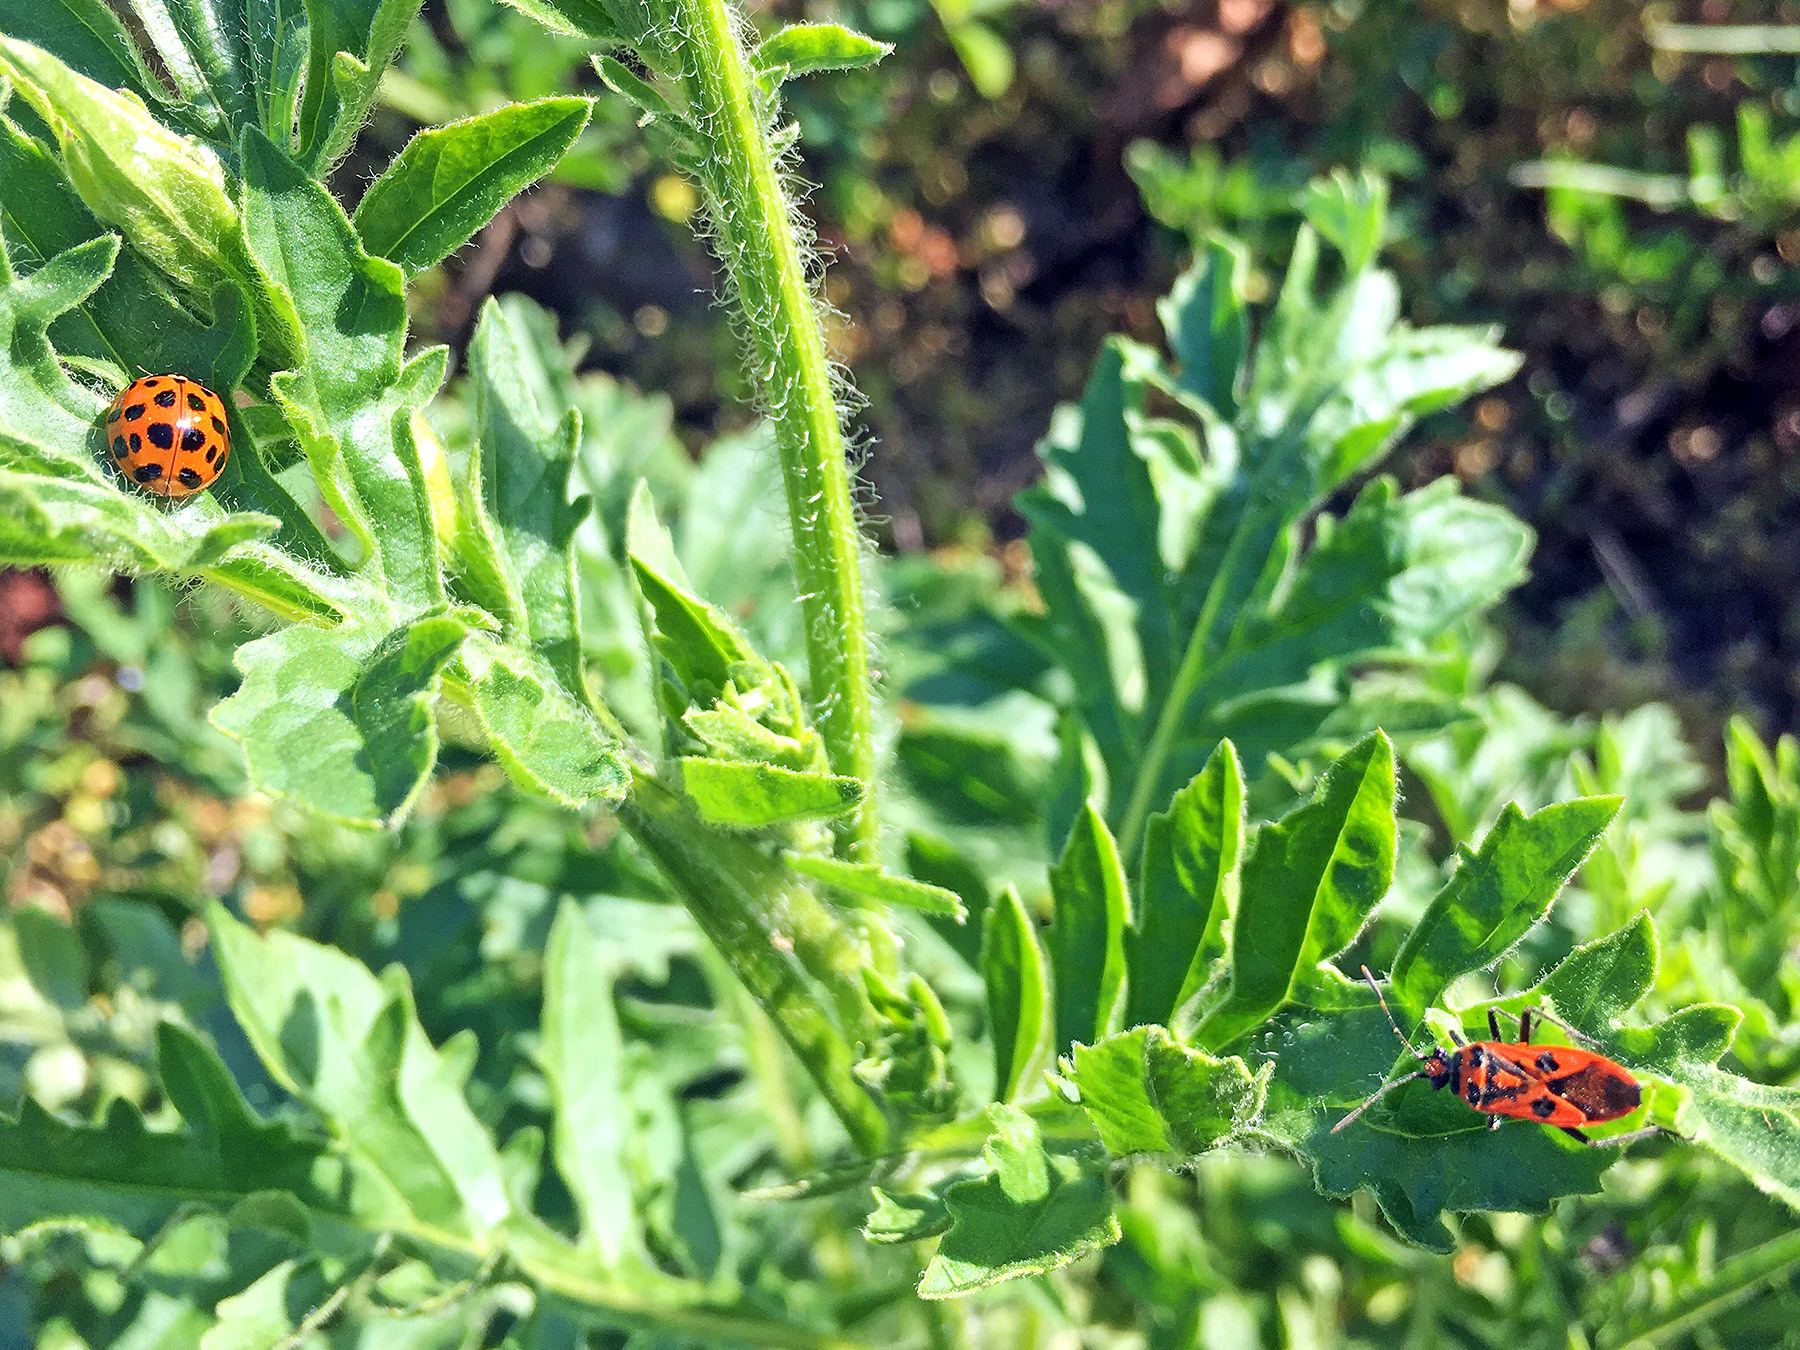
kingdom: Animalia
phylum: Arthropoda
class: Insecta
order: Hemiptera
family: Rhopalidae
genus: Corizus
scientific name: Corizus hyoscyami
